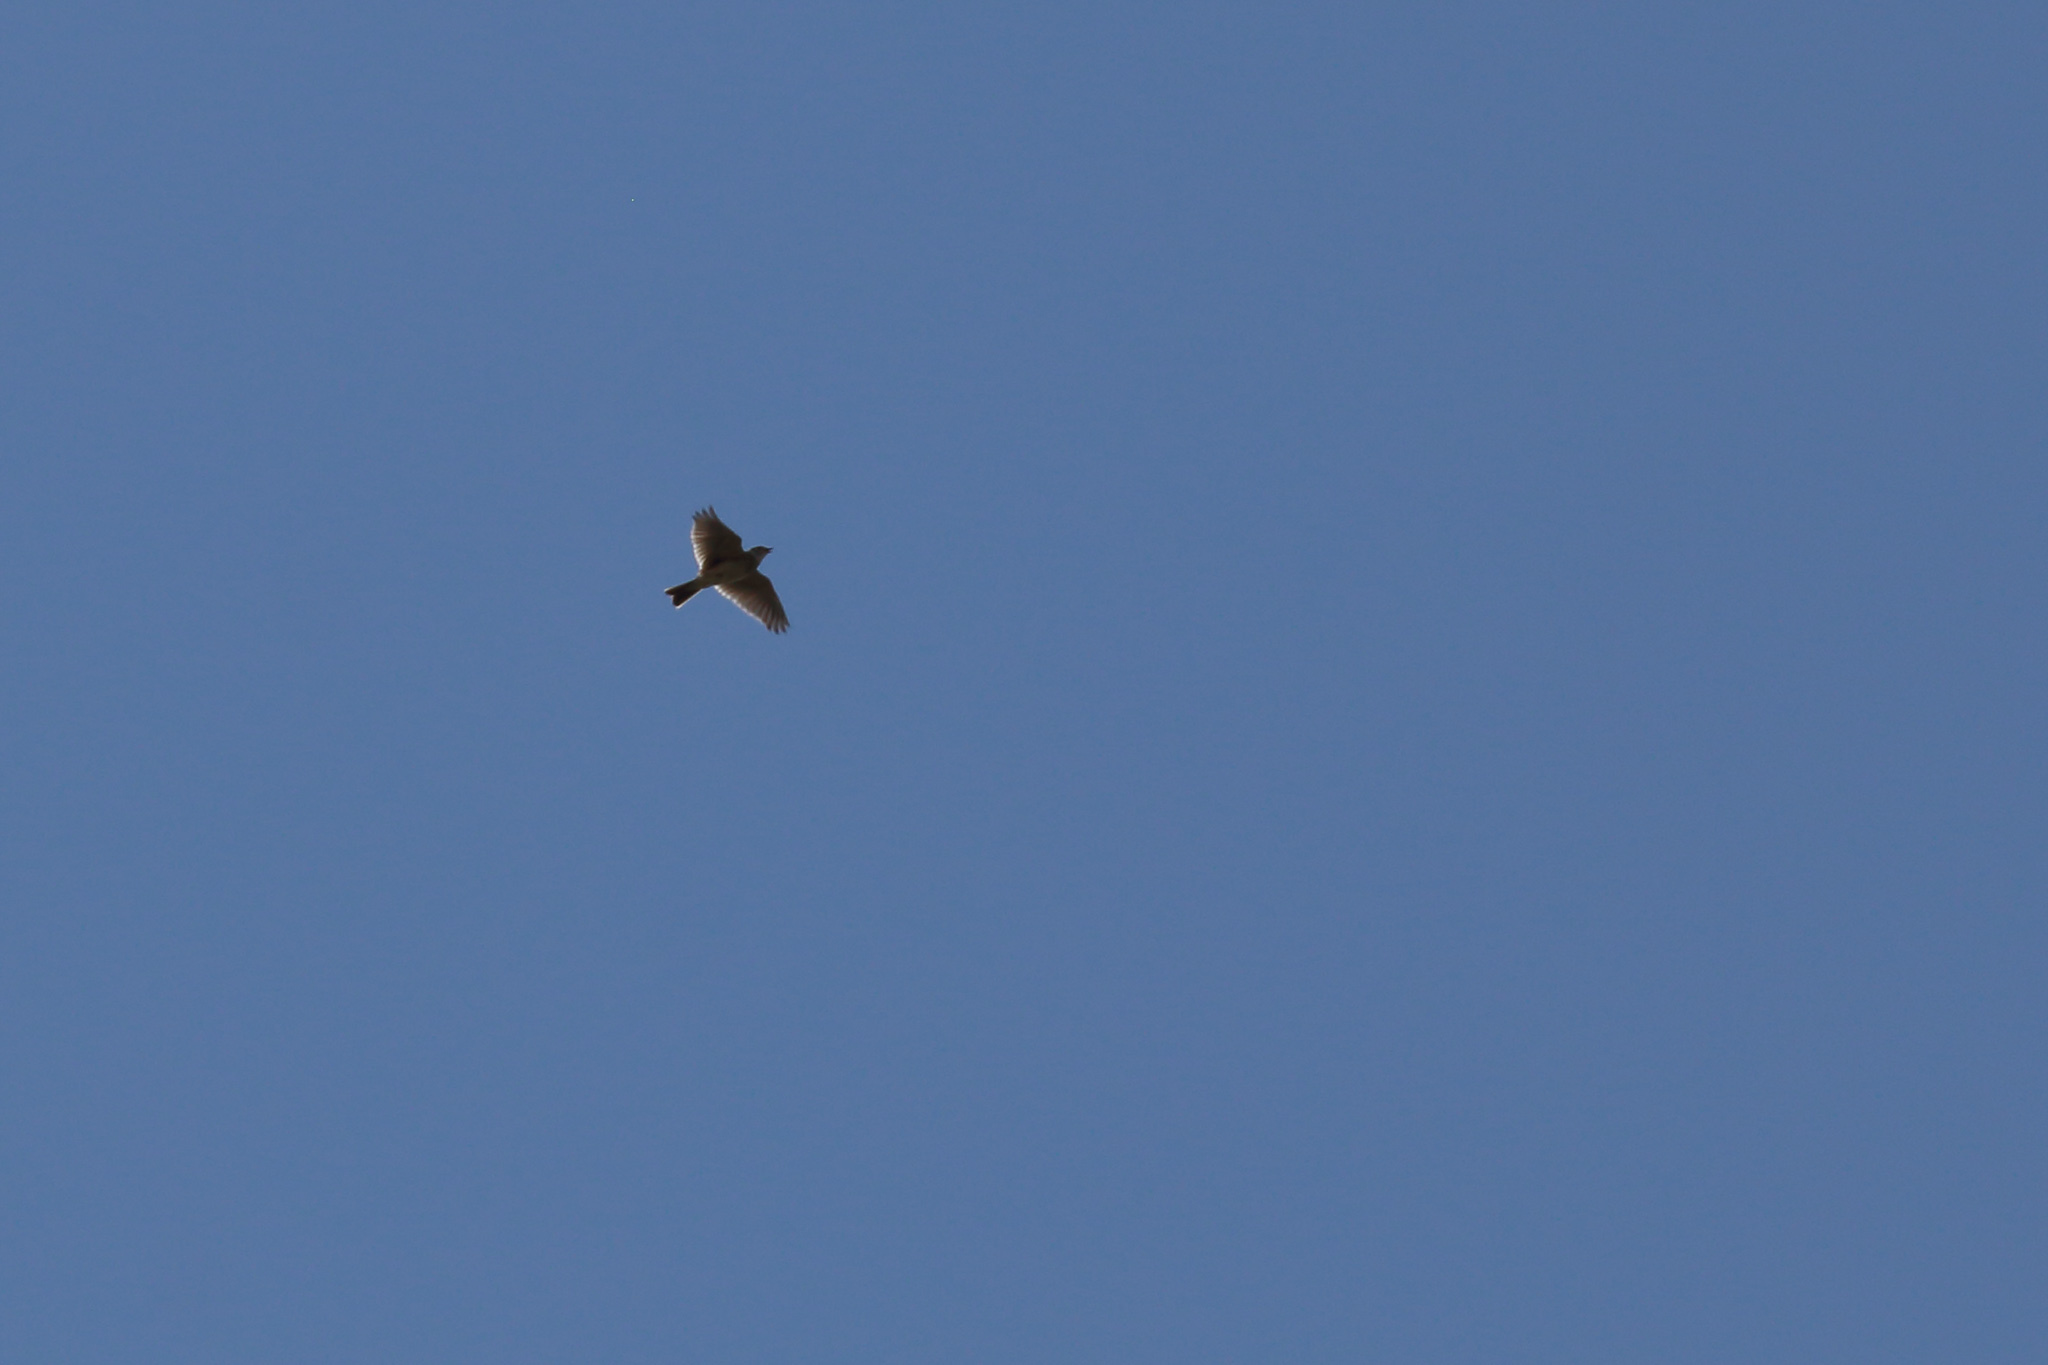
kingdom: Animalia
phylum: Chordata
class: Aves
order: Passeriformes
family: Alaudidae
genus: Alauda
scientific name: Alauda arvensis
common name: Eurasian skylark
